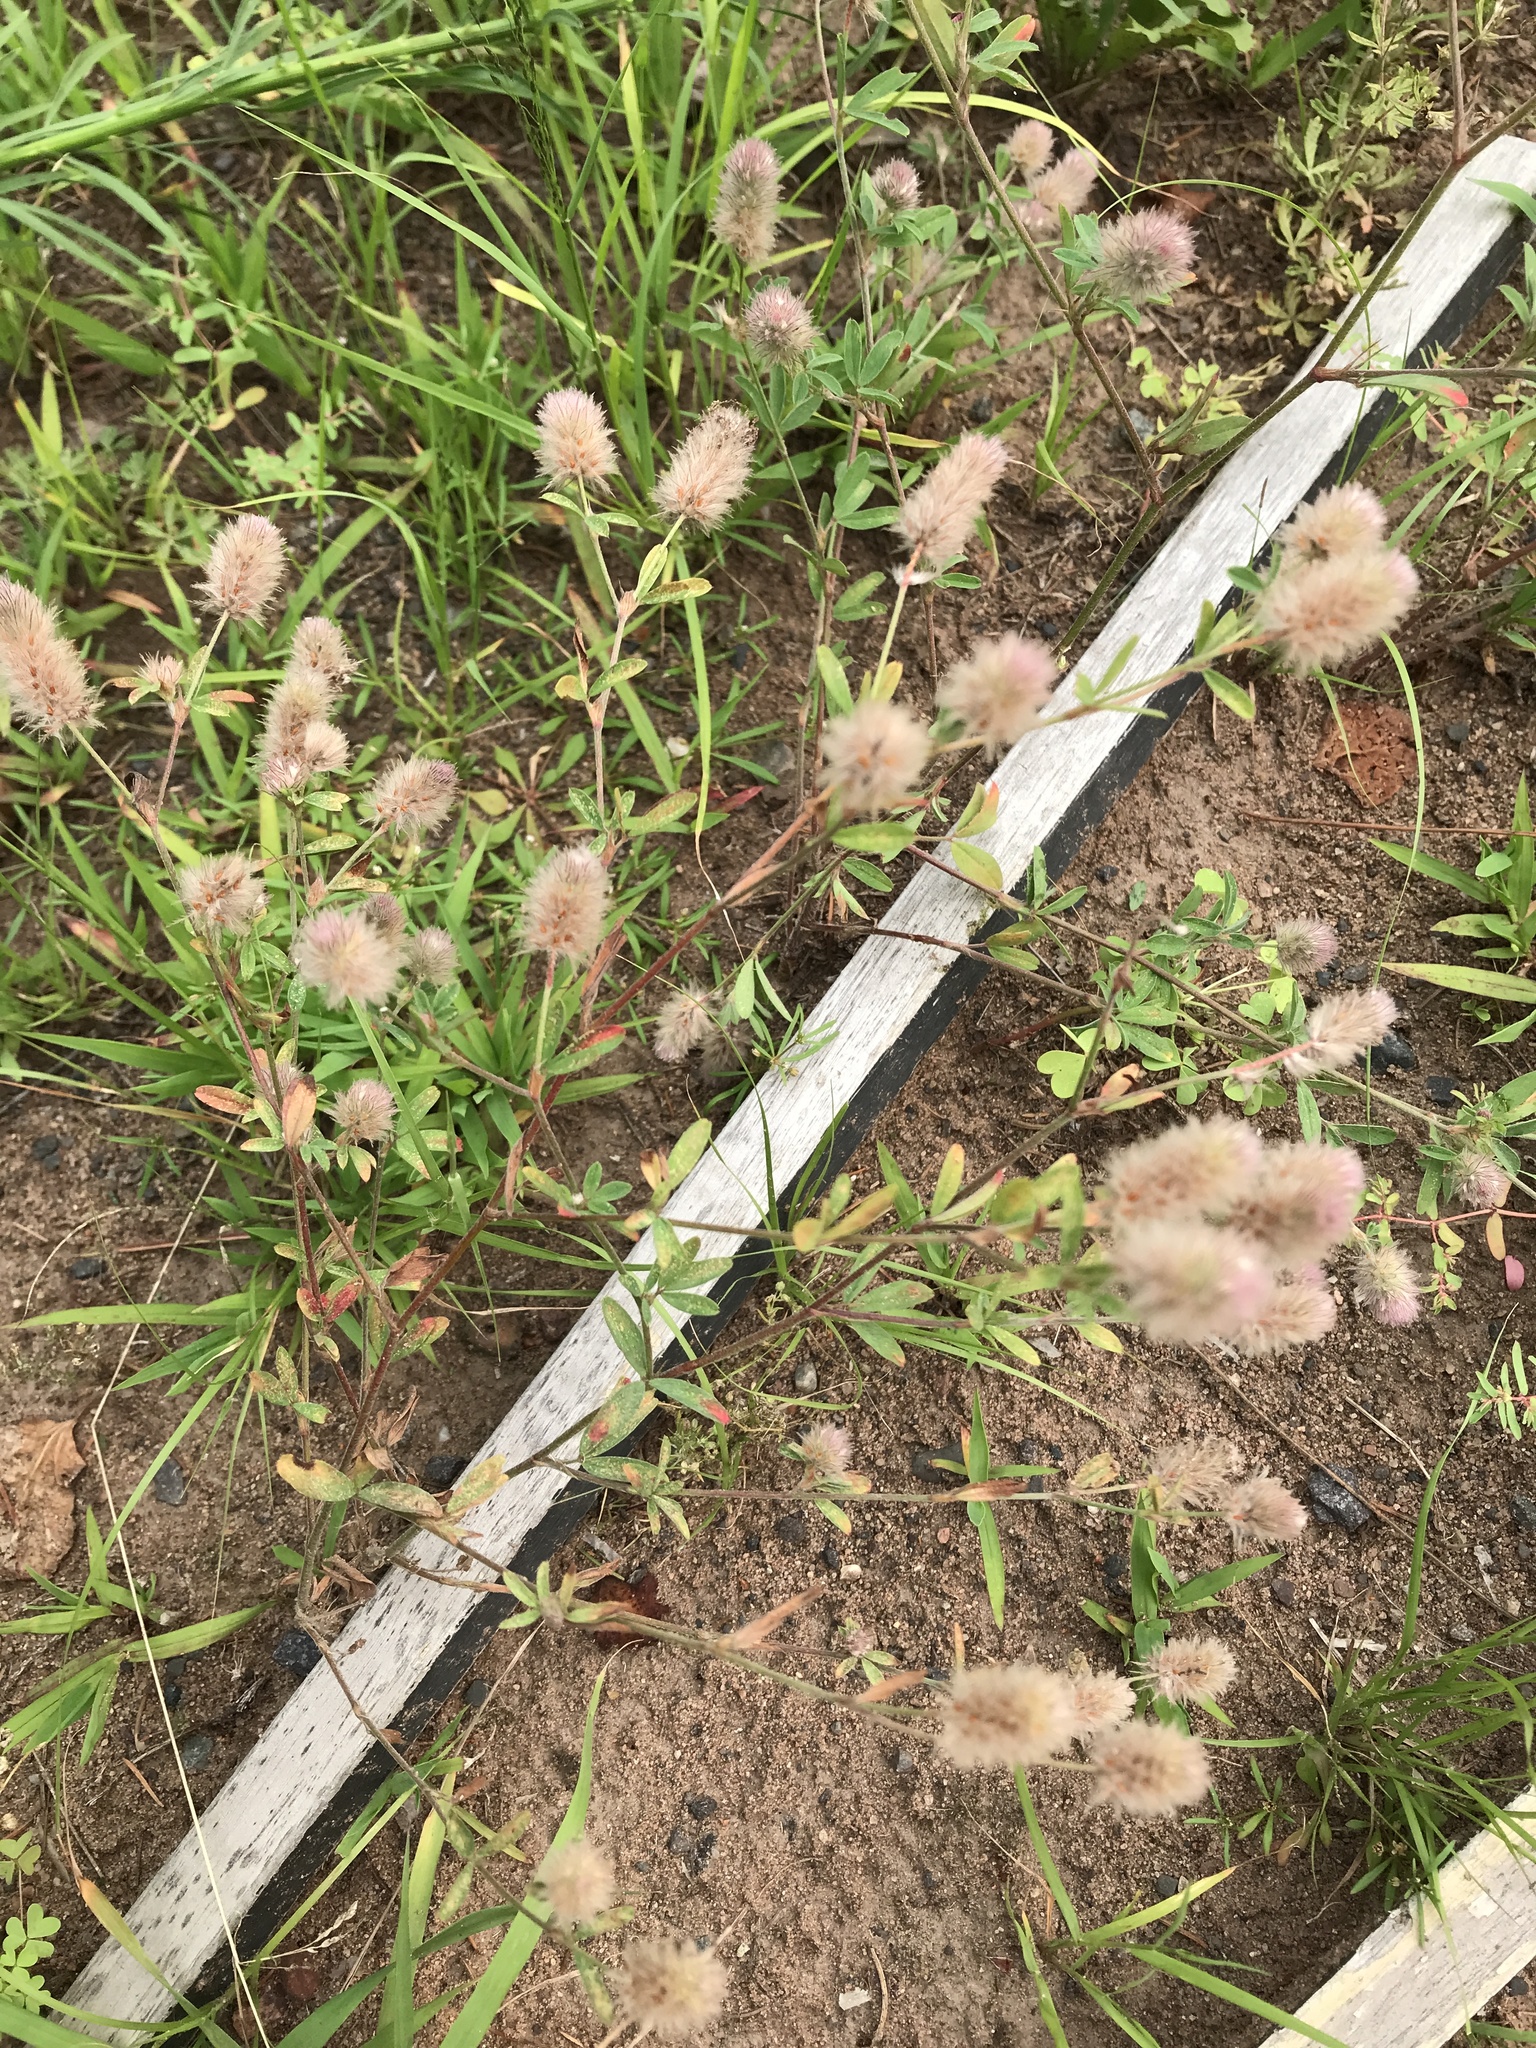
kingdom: Plantae
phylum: Tracheophyta
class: Magnoliopsida
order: Fabales
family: Fabaceae
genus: Trifolium
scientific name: Trifolium arvense
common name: Hare's-foot clover
